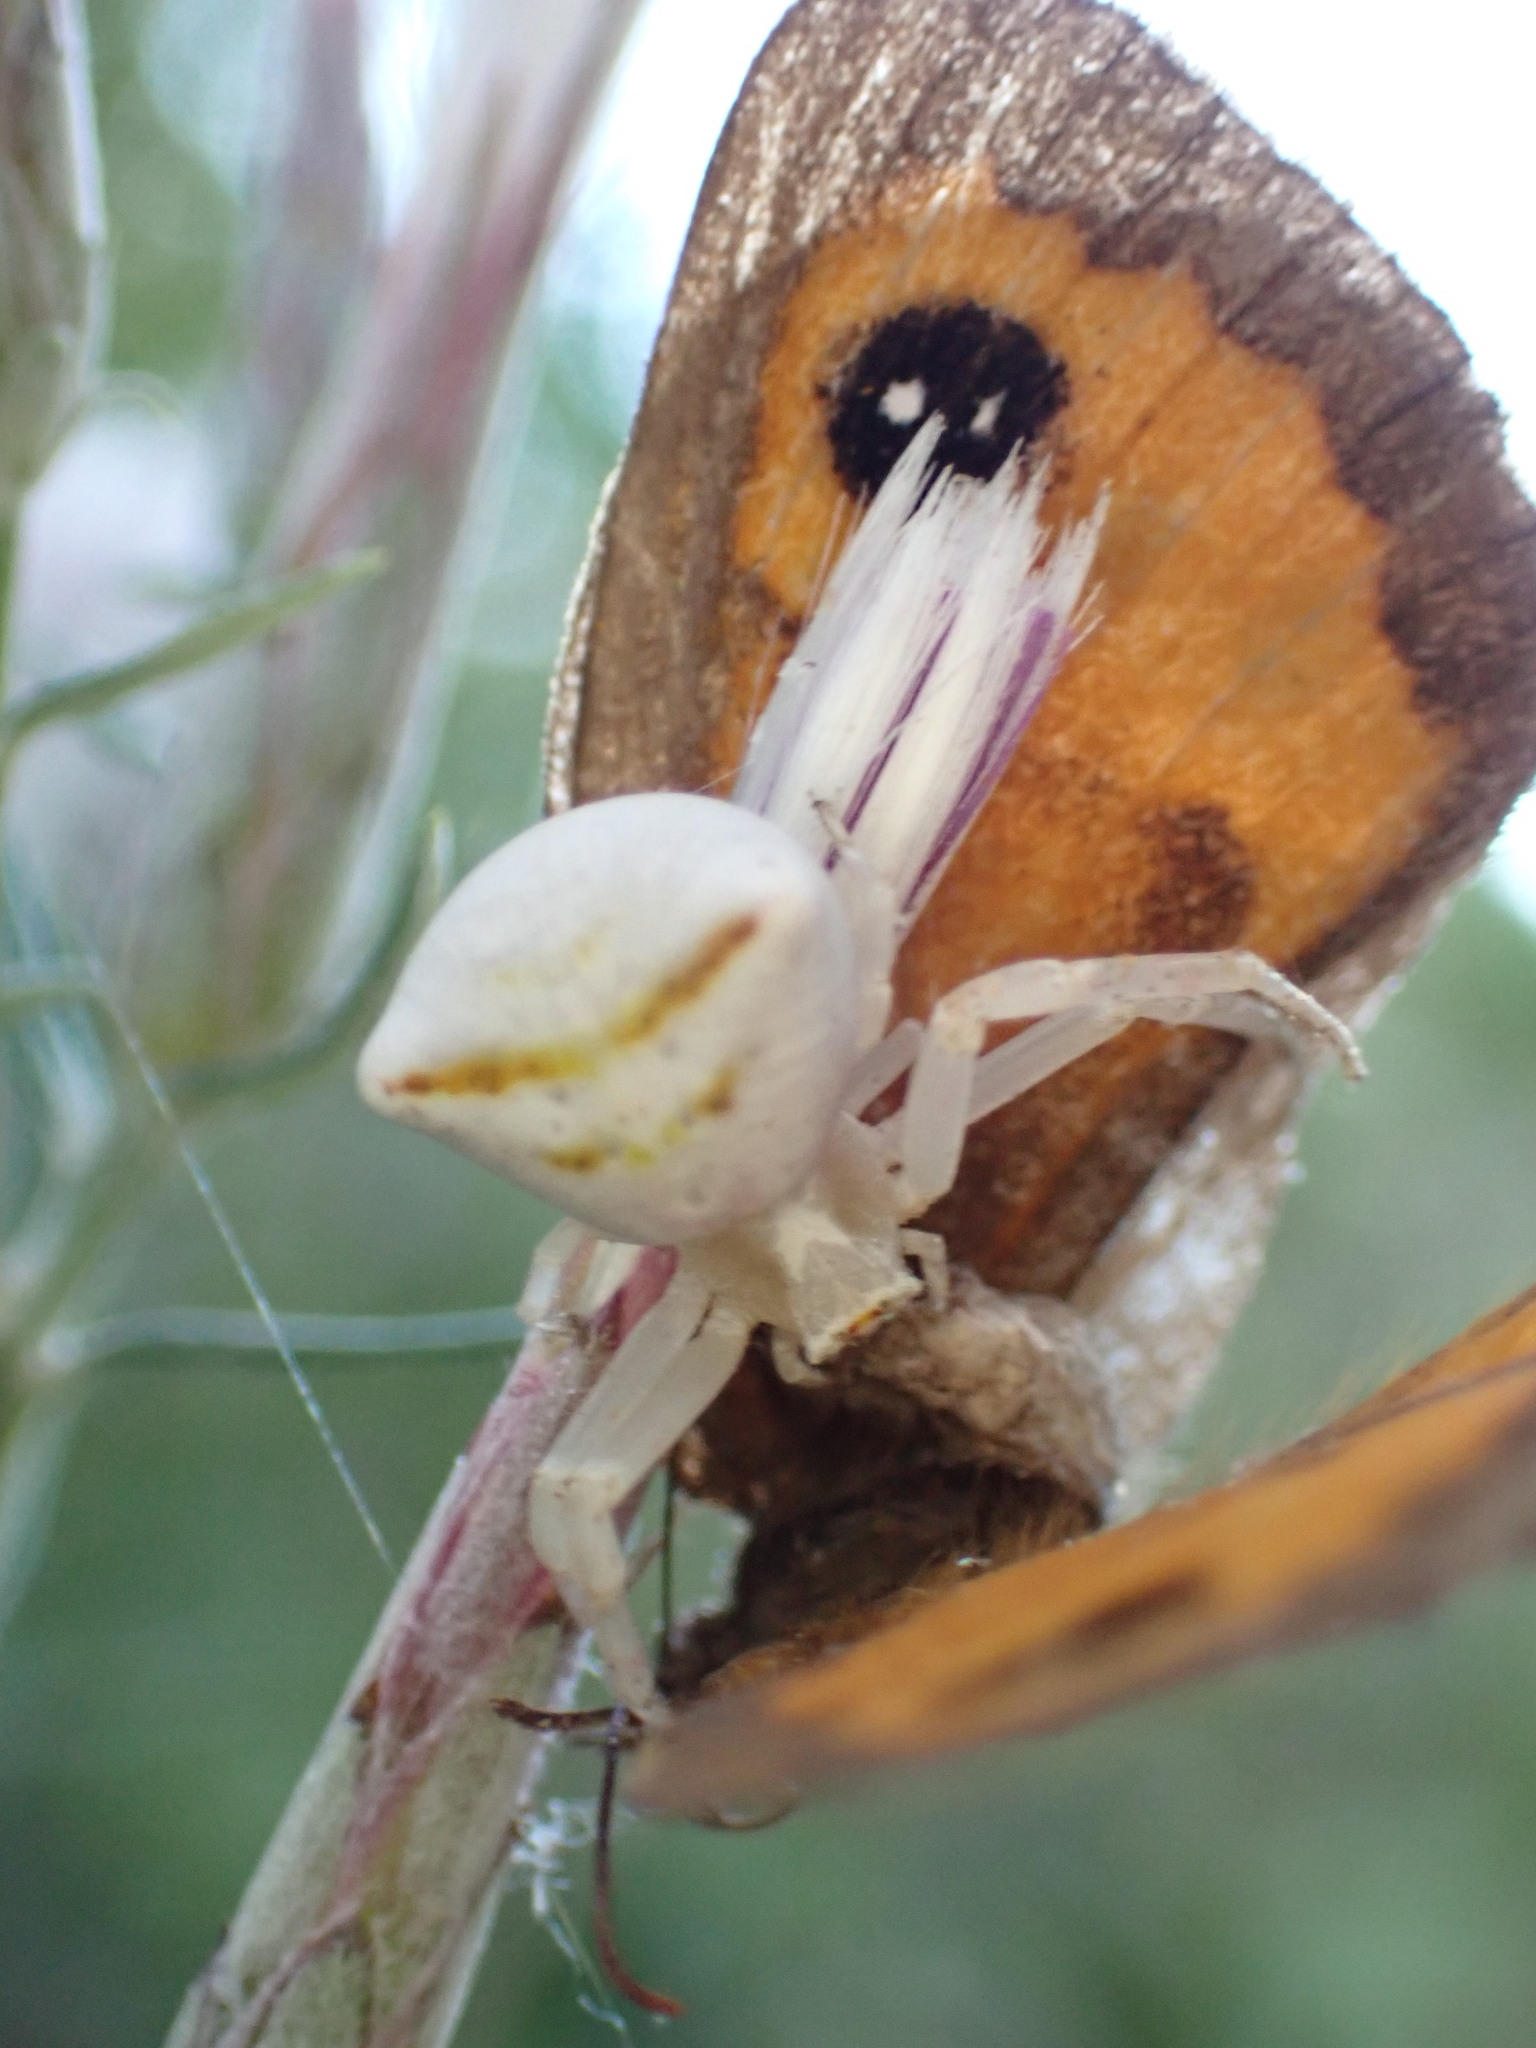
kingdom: Animalia
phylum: Arthropoda
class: Insecta
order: Lepidoptera
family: Nymphalidae
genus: Pyronia
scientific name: Pyronia bathseba
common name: Spanish gatekeeper
